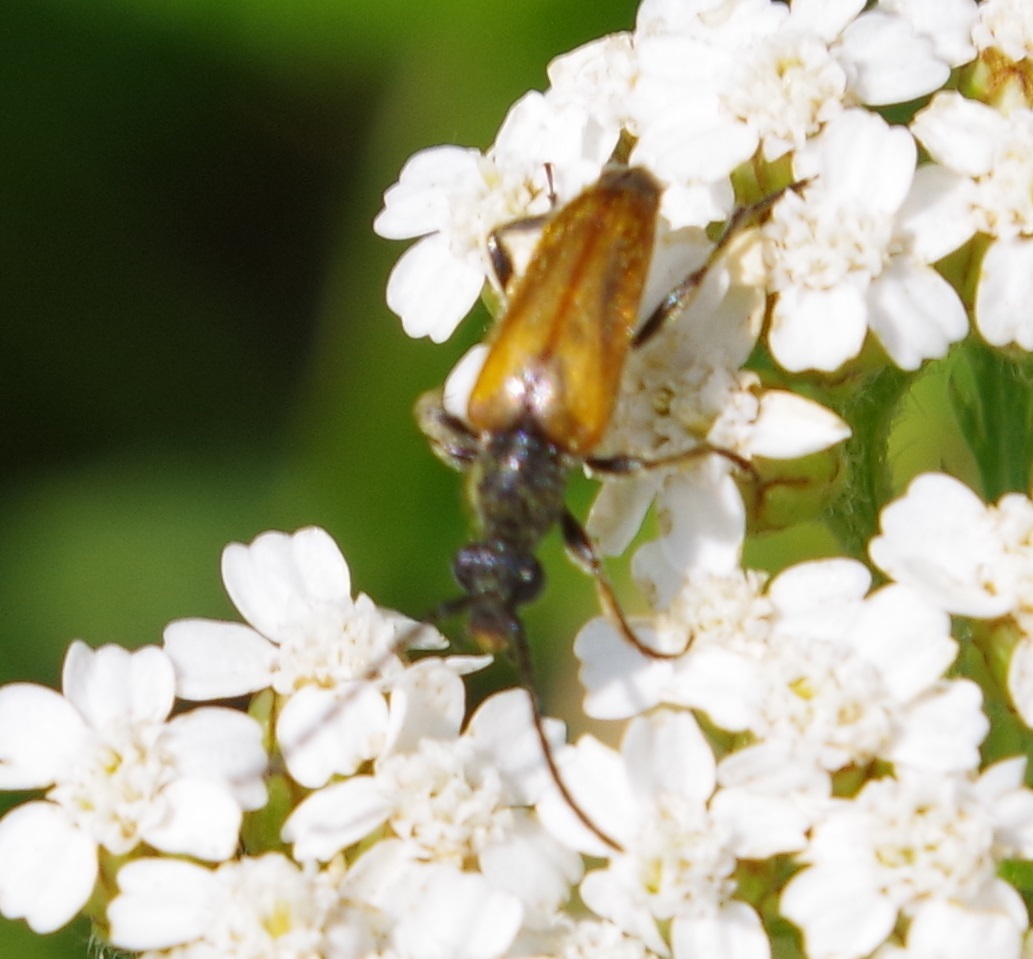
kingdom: Animalia
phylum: Arthropoda
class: Insecta
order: Coleoptera
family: Cerambycidae
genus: Pseudovadonia
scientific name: Pseudovadonia livida
